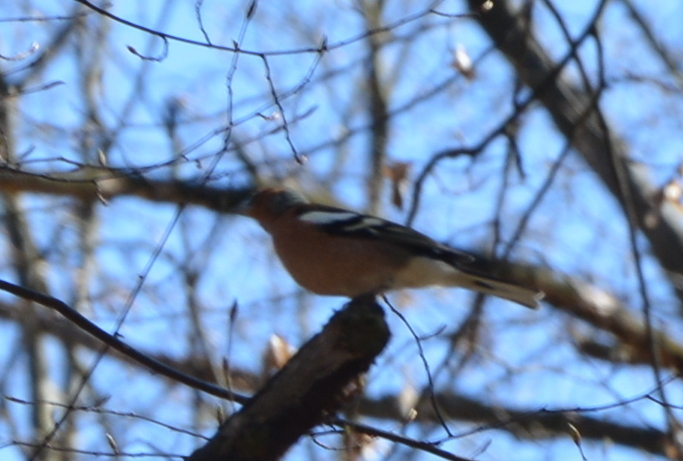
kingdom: Animalia
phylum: Chordata
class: Aves
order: Passeriformes
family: Fringillidae
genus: Fringilla
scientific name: Fringilla coelebs
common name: Common chaffinch
